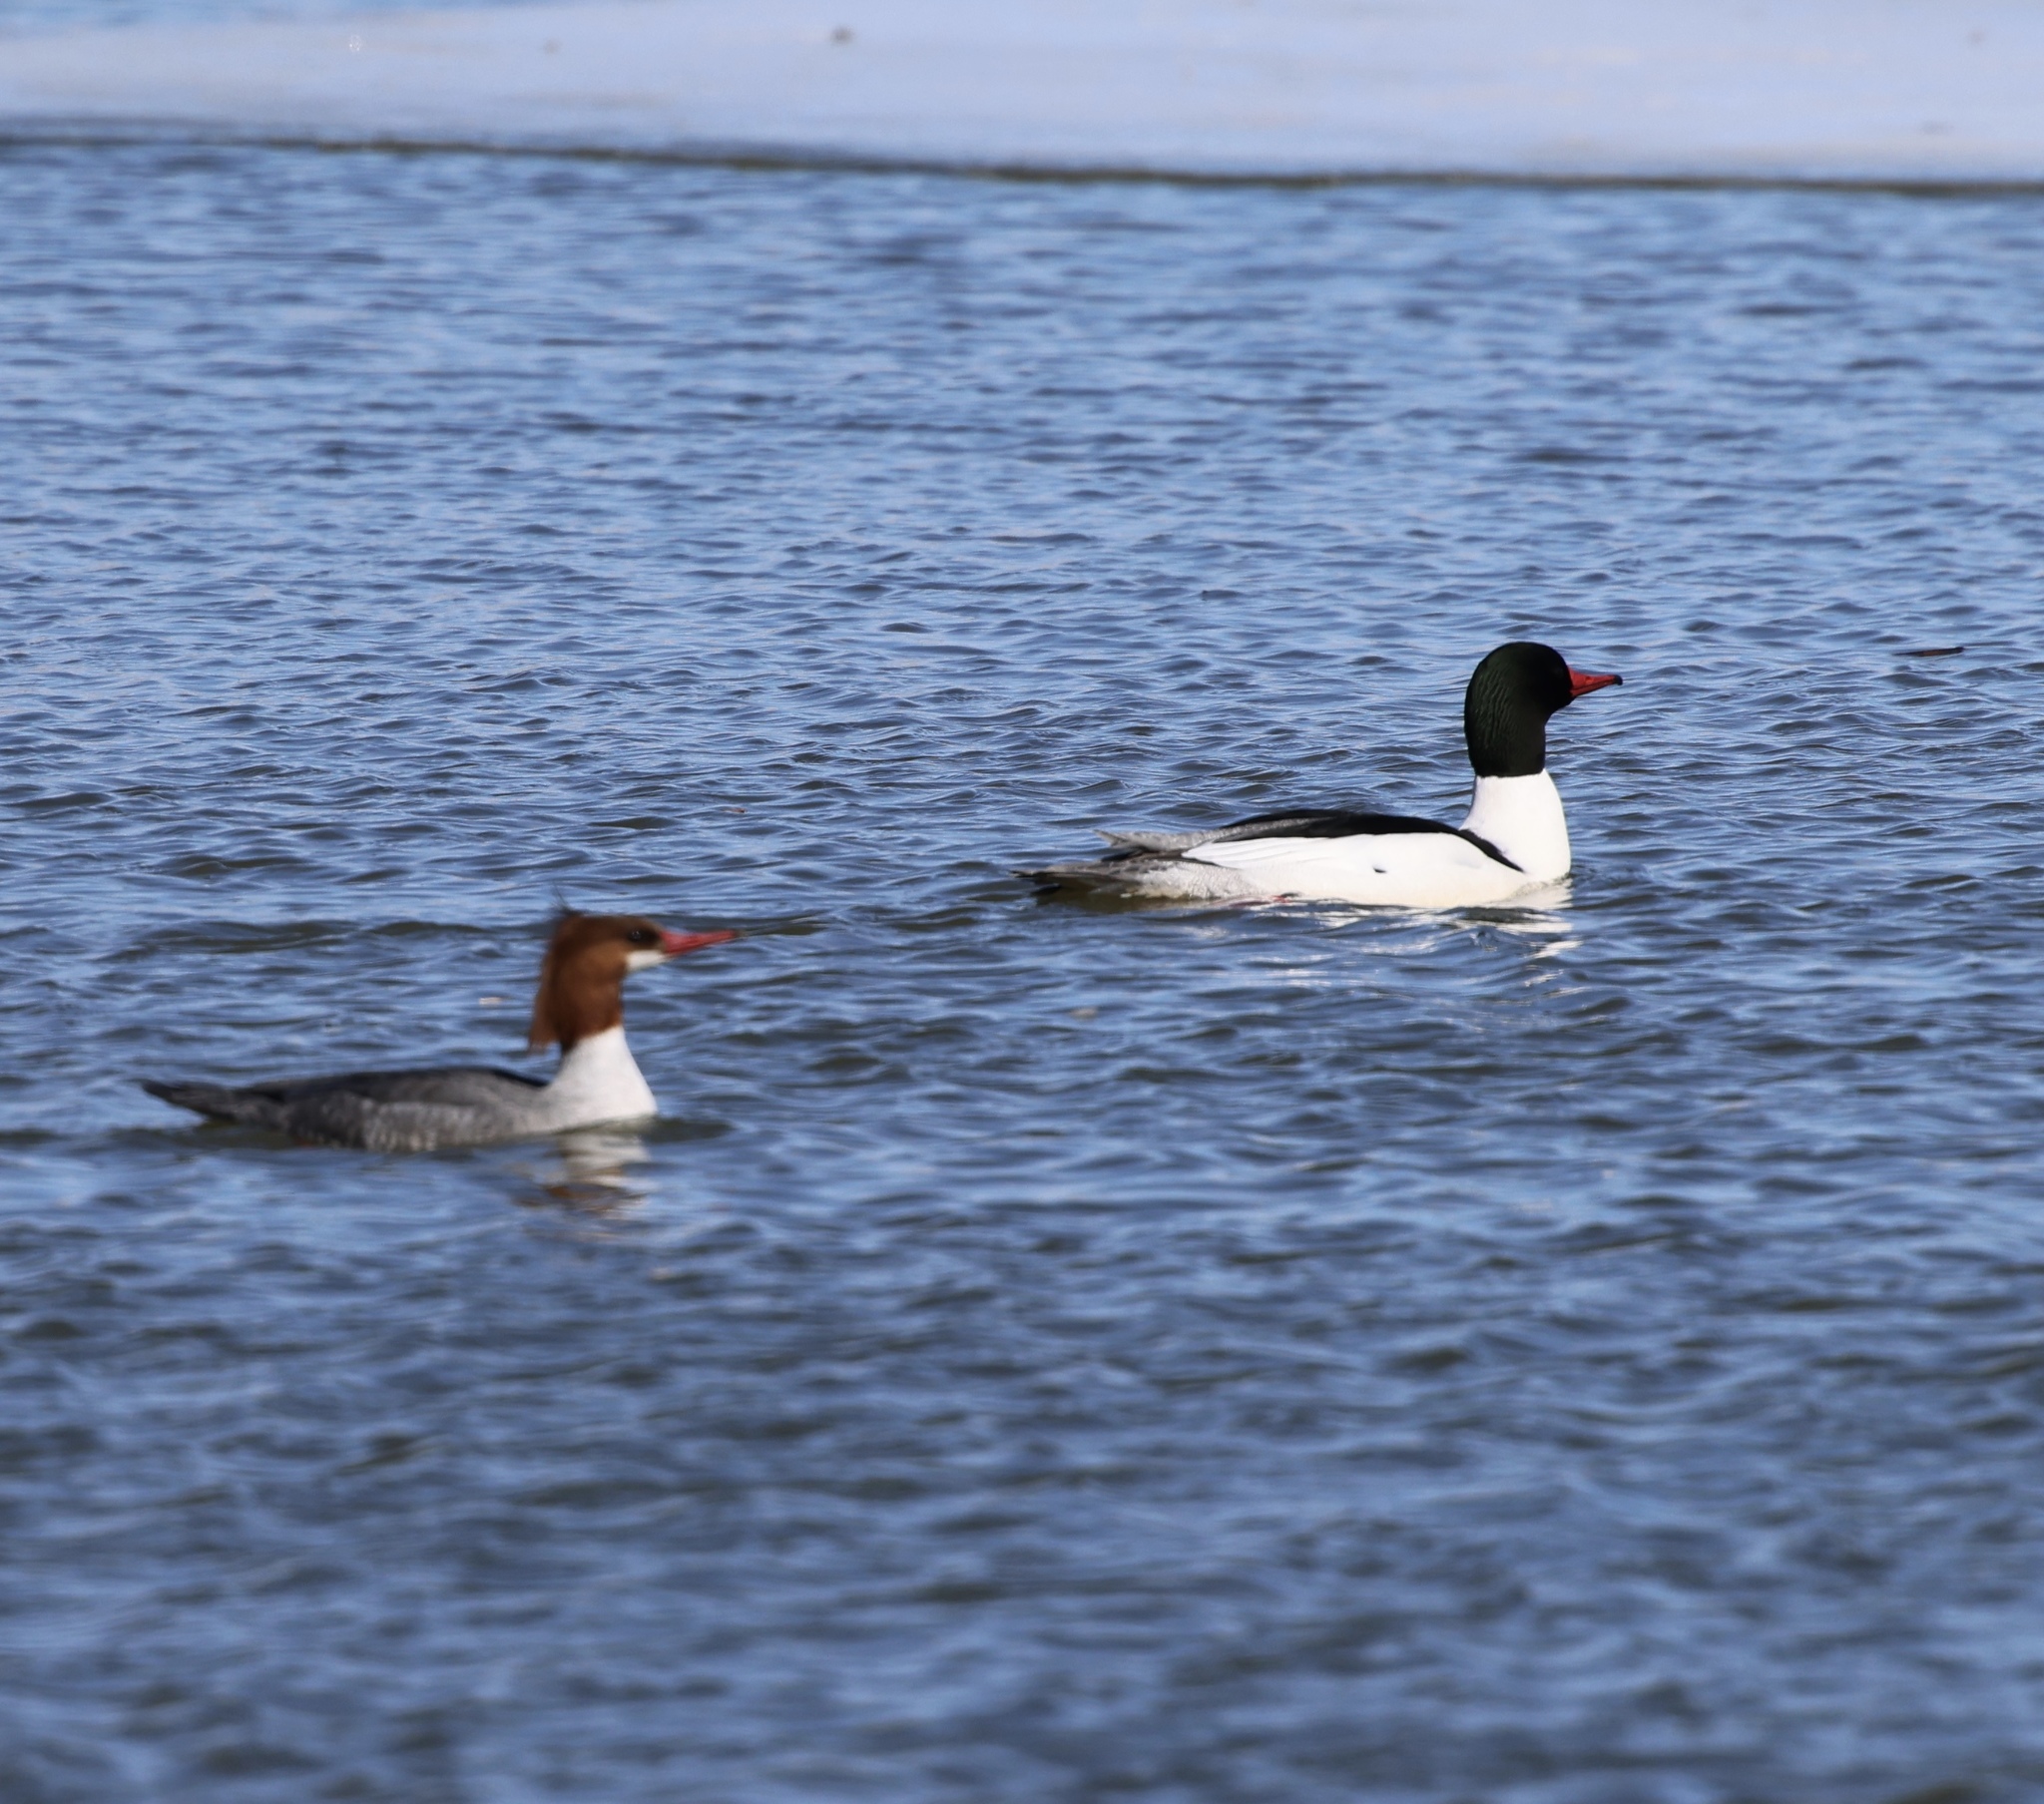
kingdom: Animalia
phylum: Chordata
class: Aves
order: Anseriformes
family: Anatidae
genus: Mergus
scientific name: Mergus merganser
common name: Common merganser
